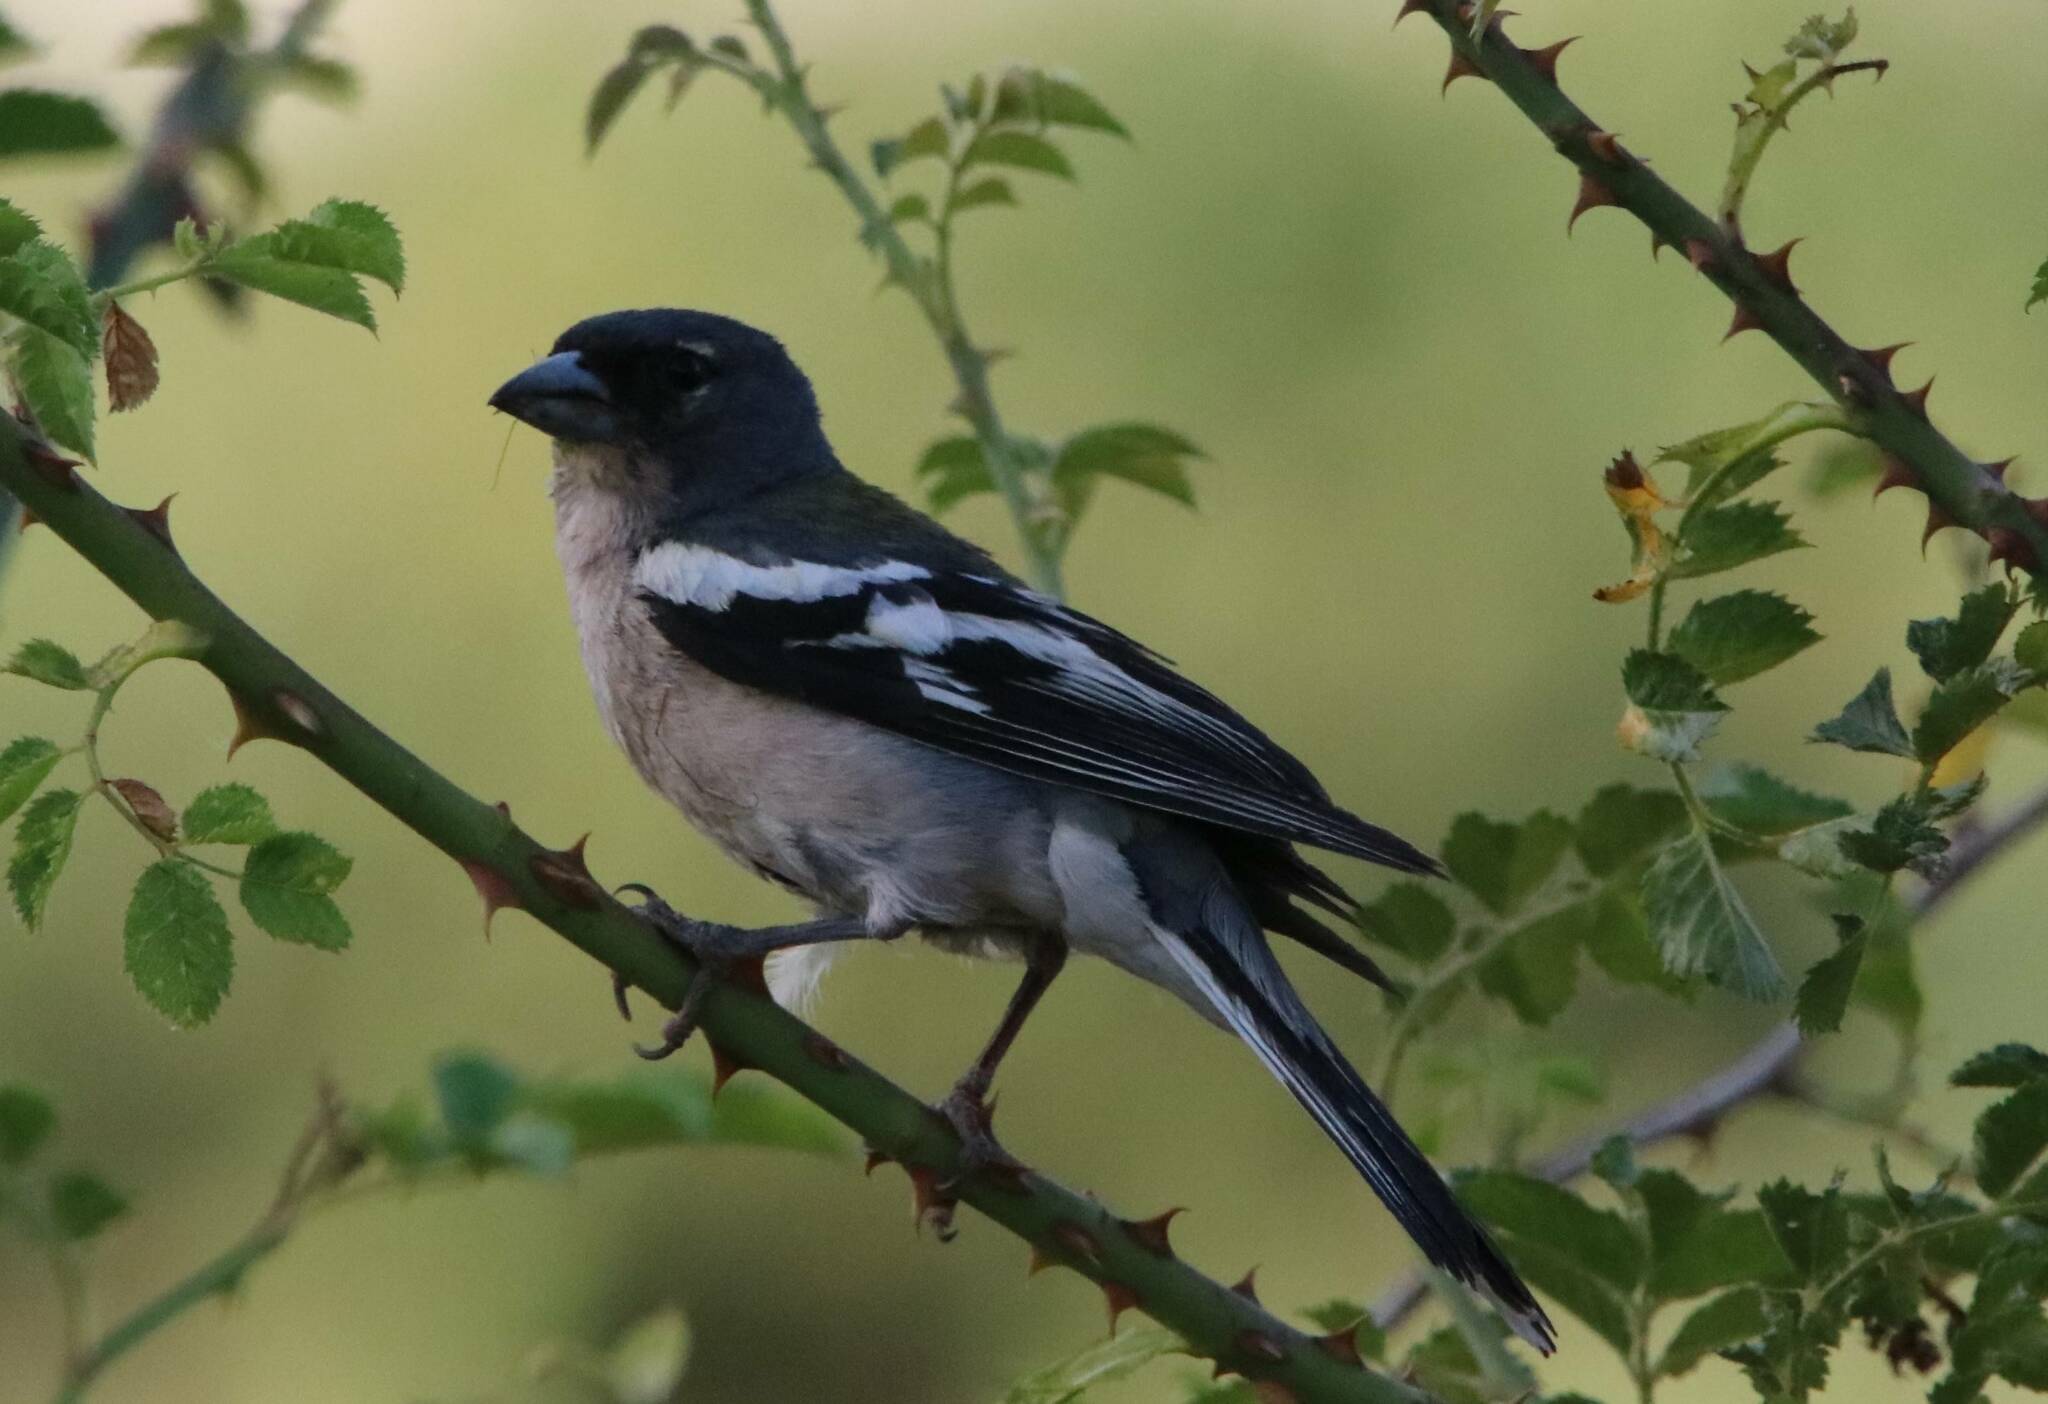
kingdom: Animalia
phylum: Chordata
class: Aves
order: Passeriformes
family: Fringillidae
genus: Fringilla
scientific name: Fringilla spodiogenys
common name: African chaffinch
